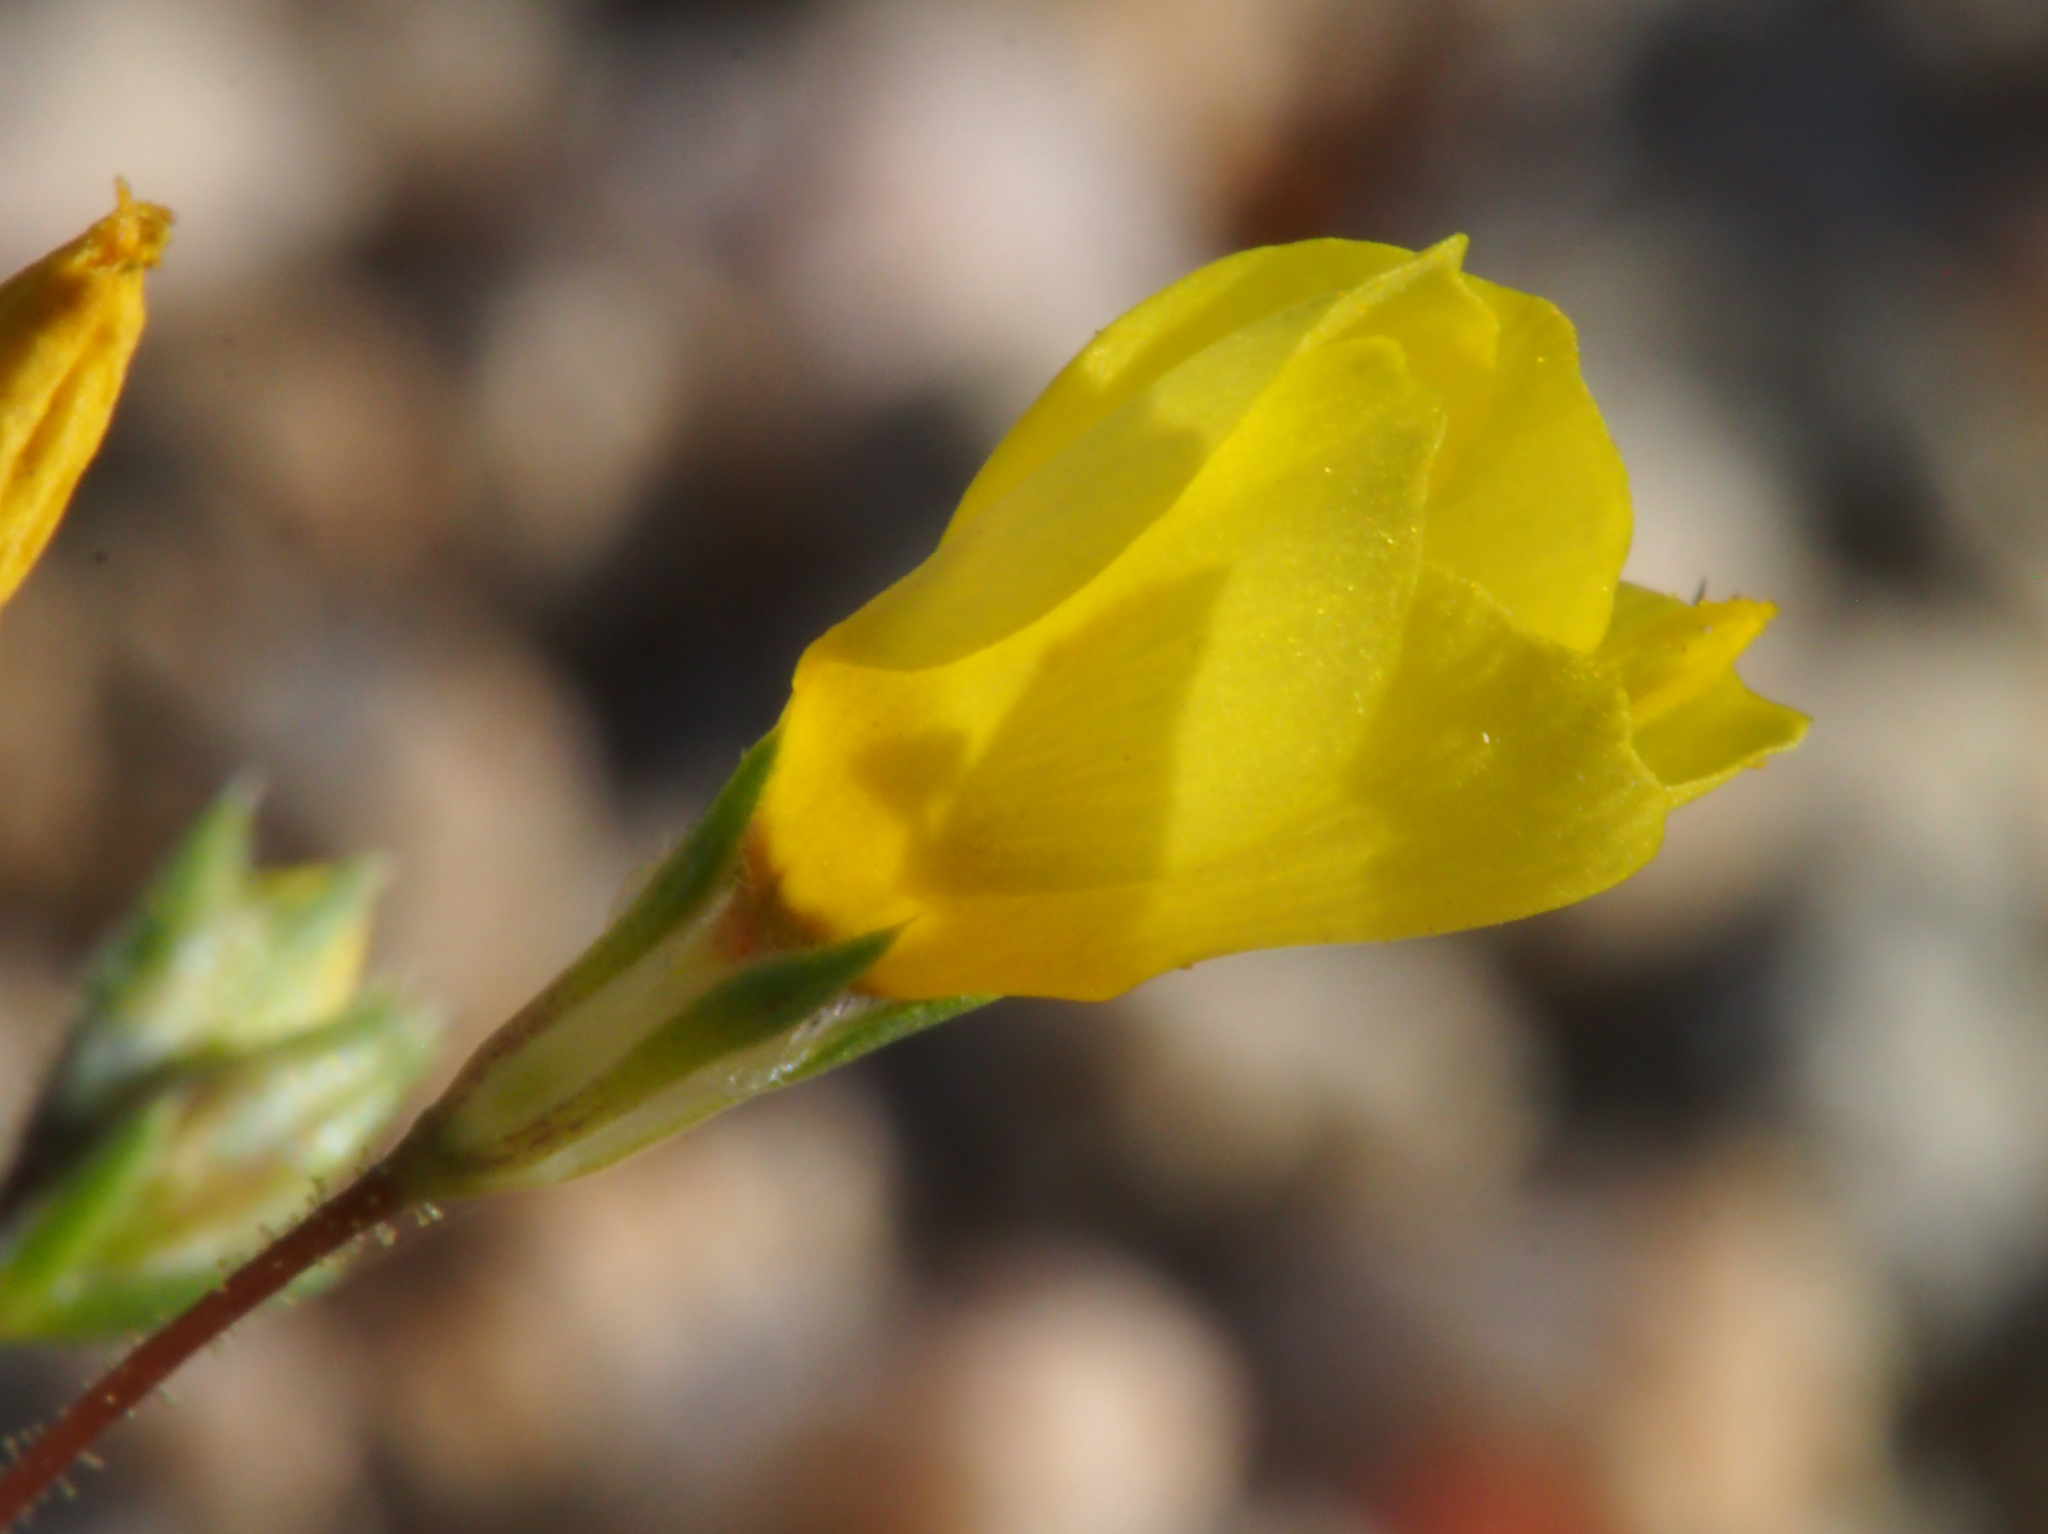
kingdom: Plantae
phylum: Tracheophyta
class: Magnoliopsida
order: Ericales
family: Polemoniaceae
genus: Leptosiphon
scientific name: Leptosiphon chrysanthus
